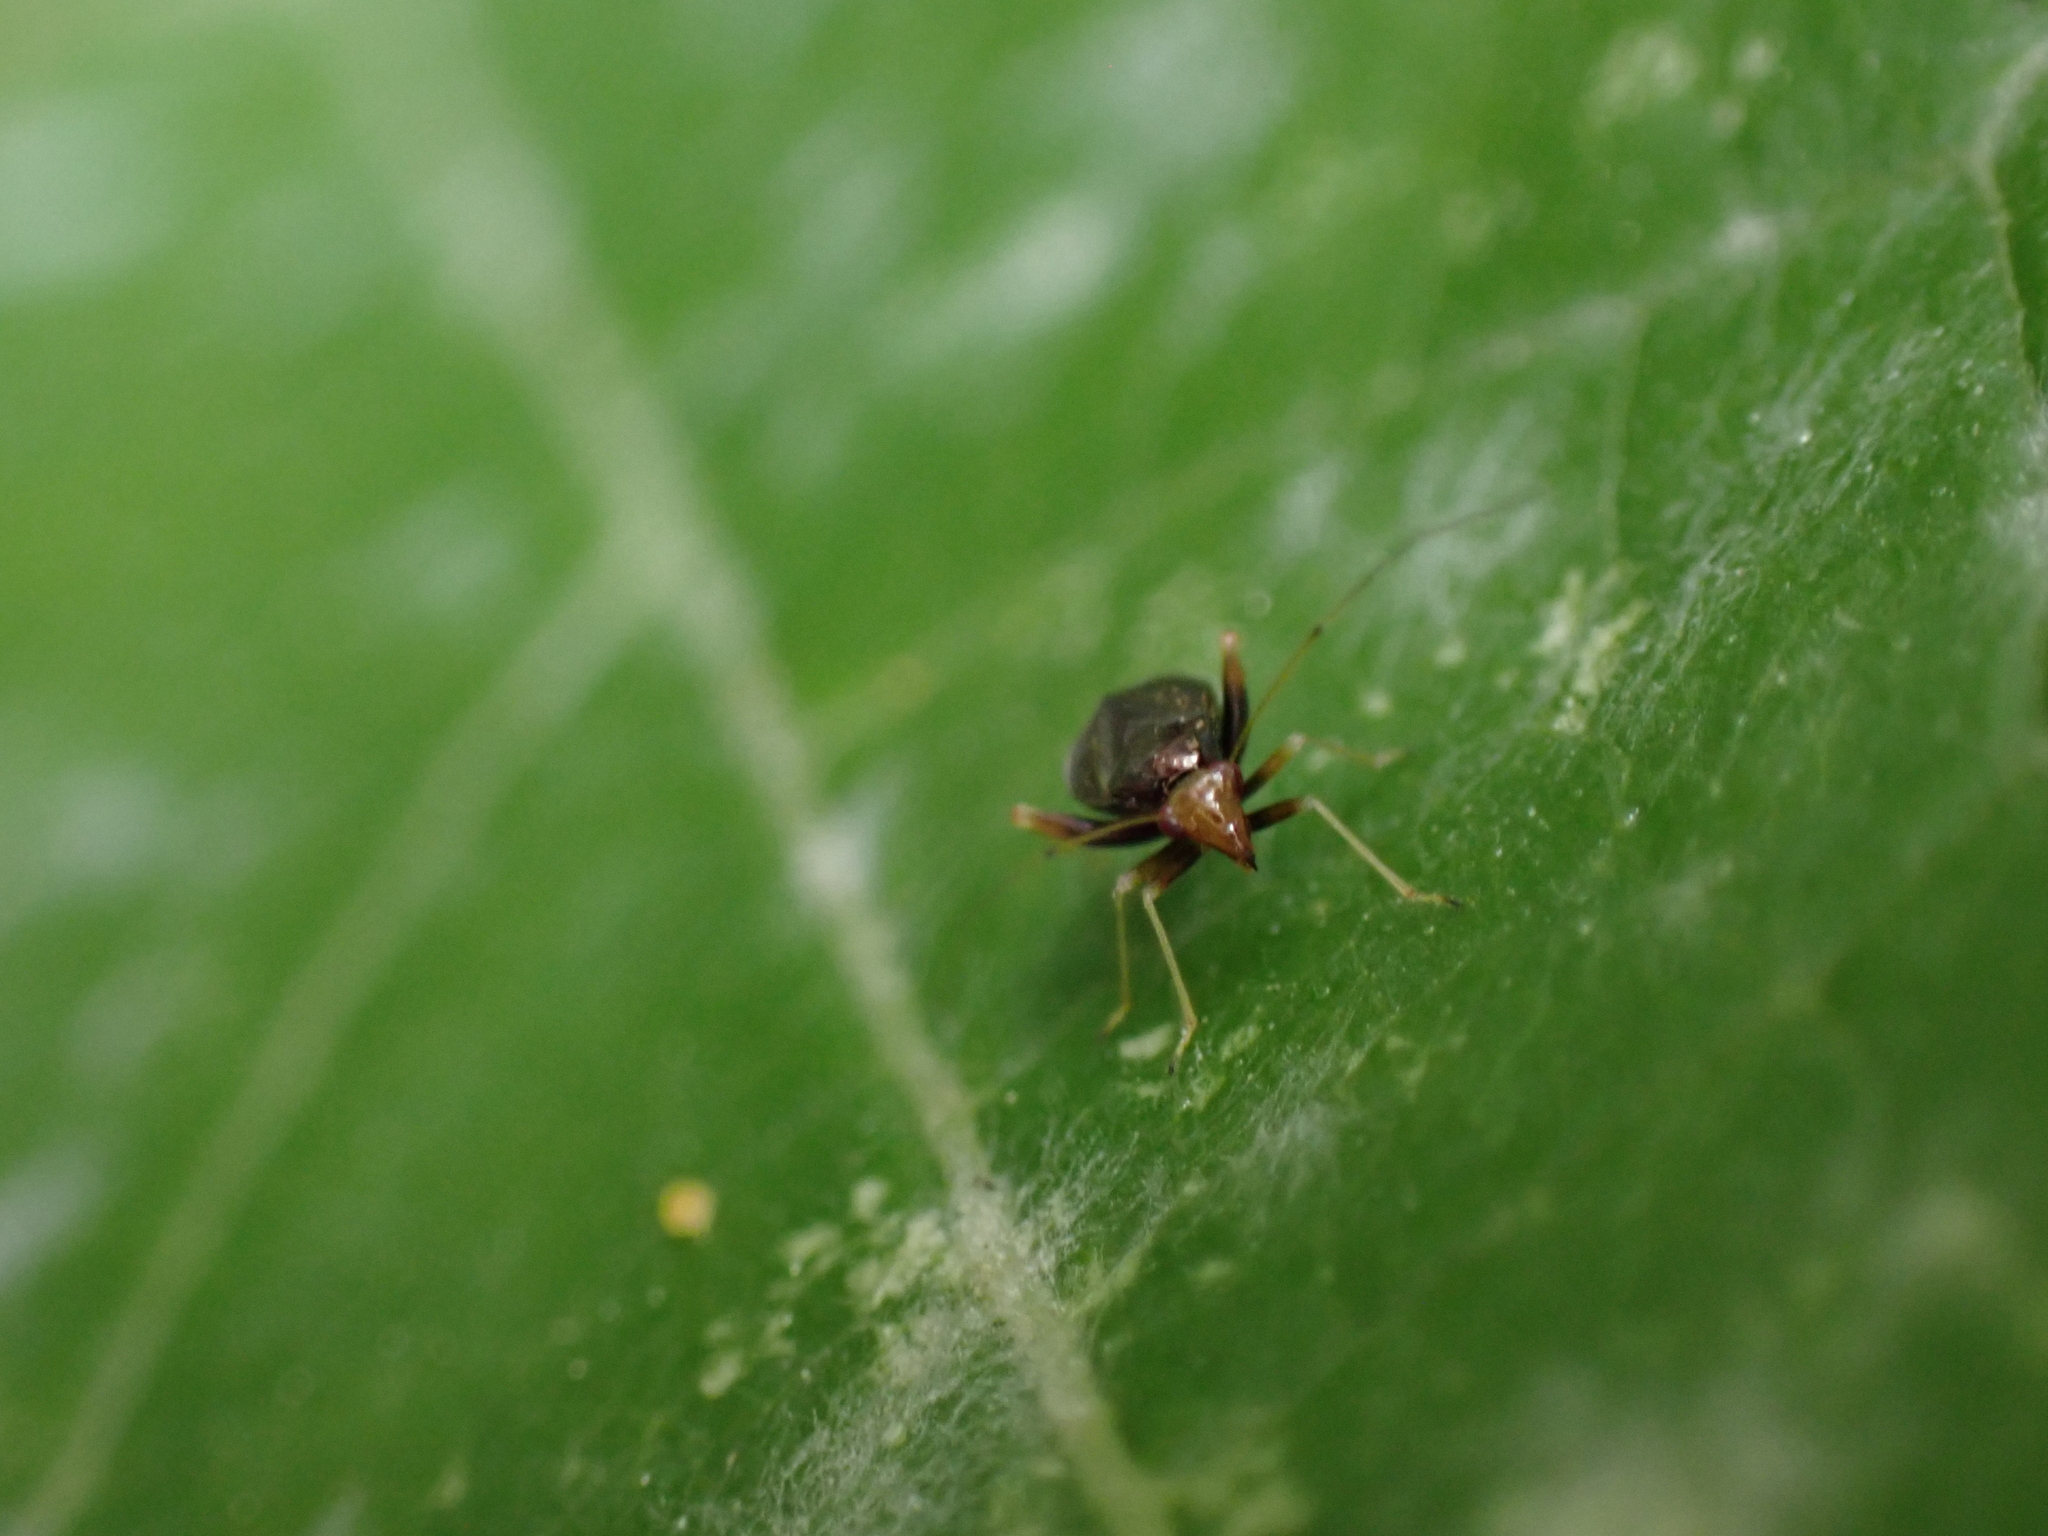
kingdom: Animalia
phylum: Arthropoda
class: Insecta
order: Hemiptera
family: Miridae
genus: Halticus
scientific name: Halticus luteicollis
